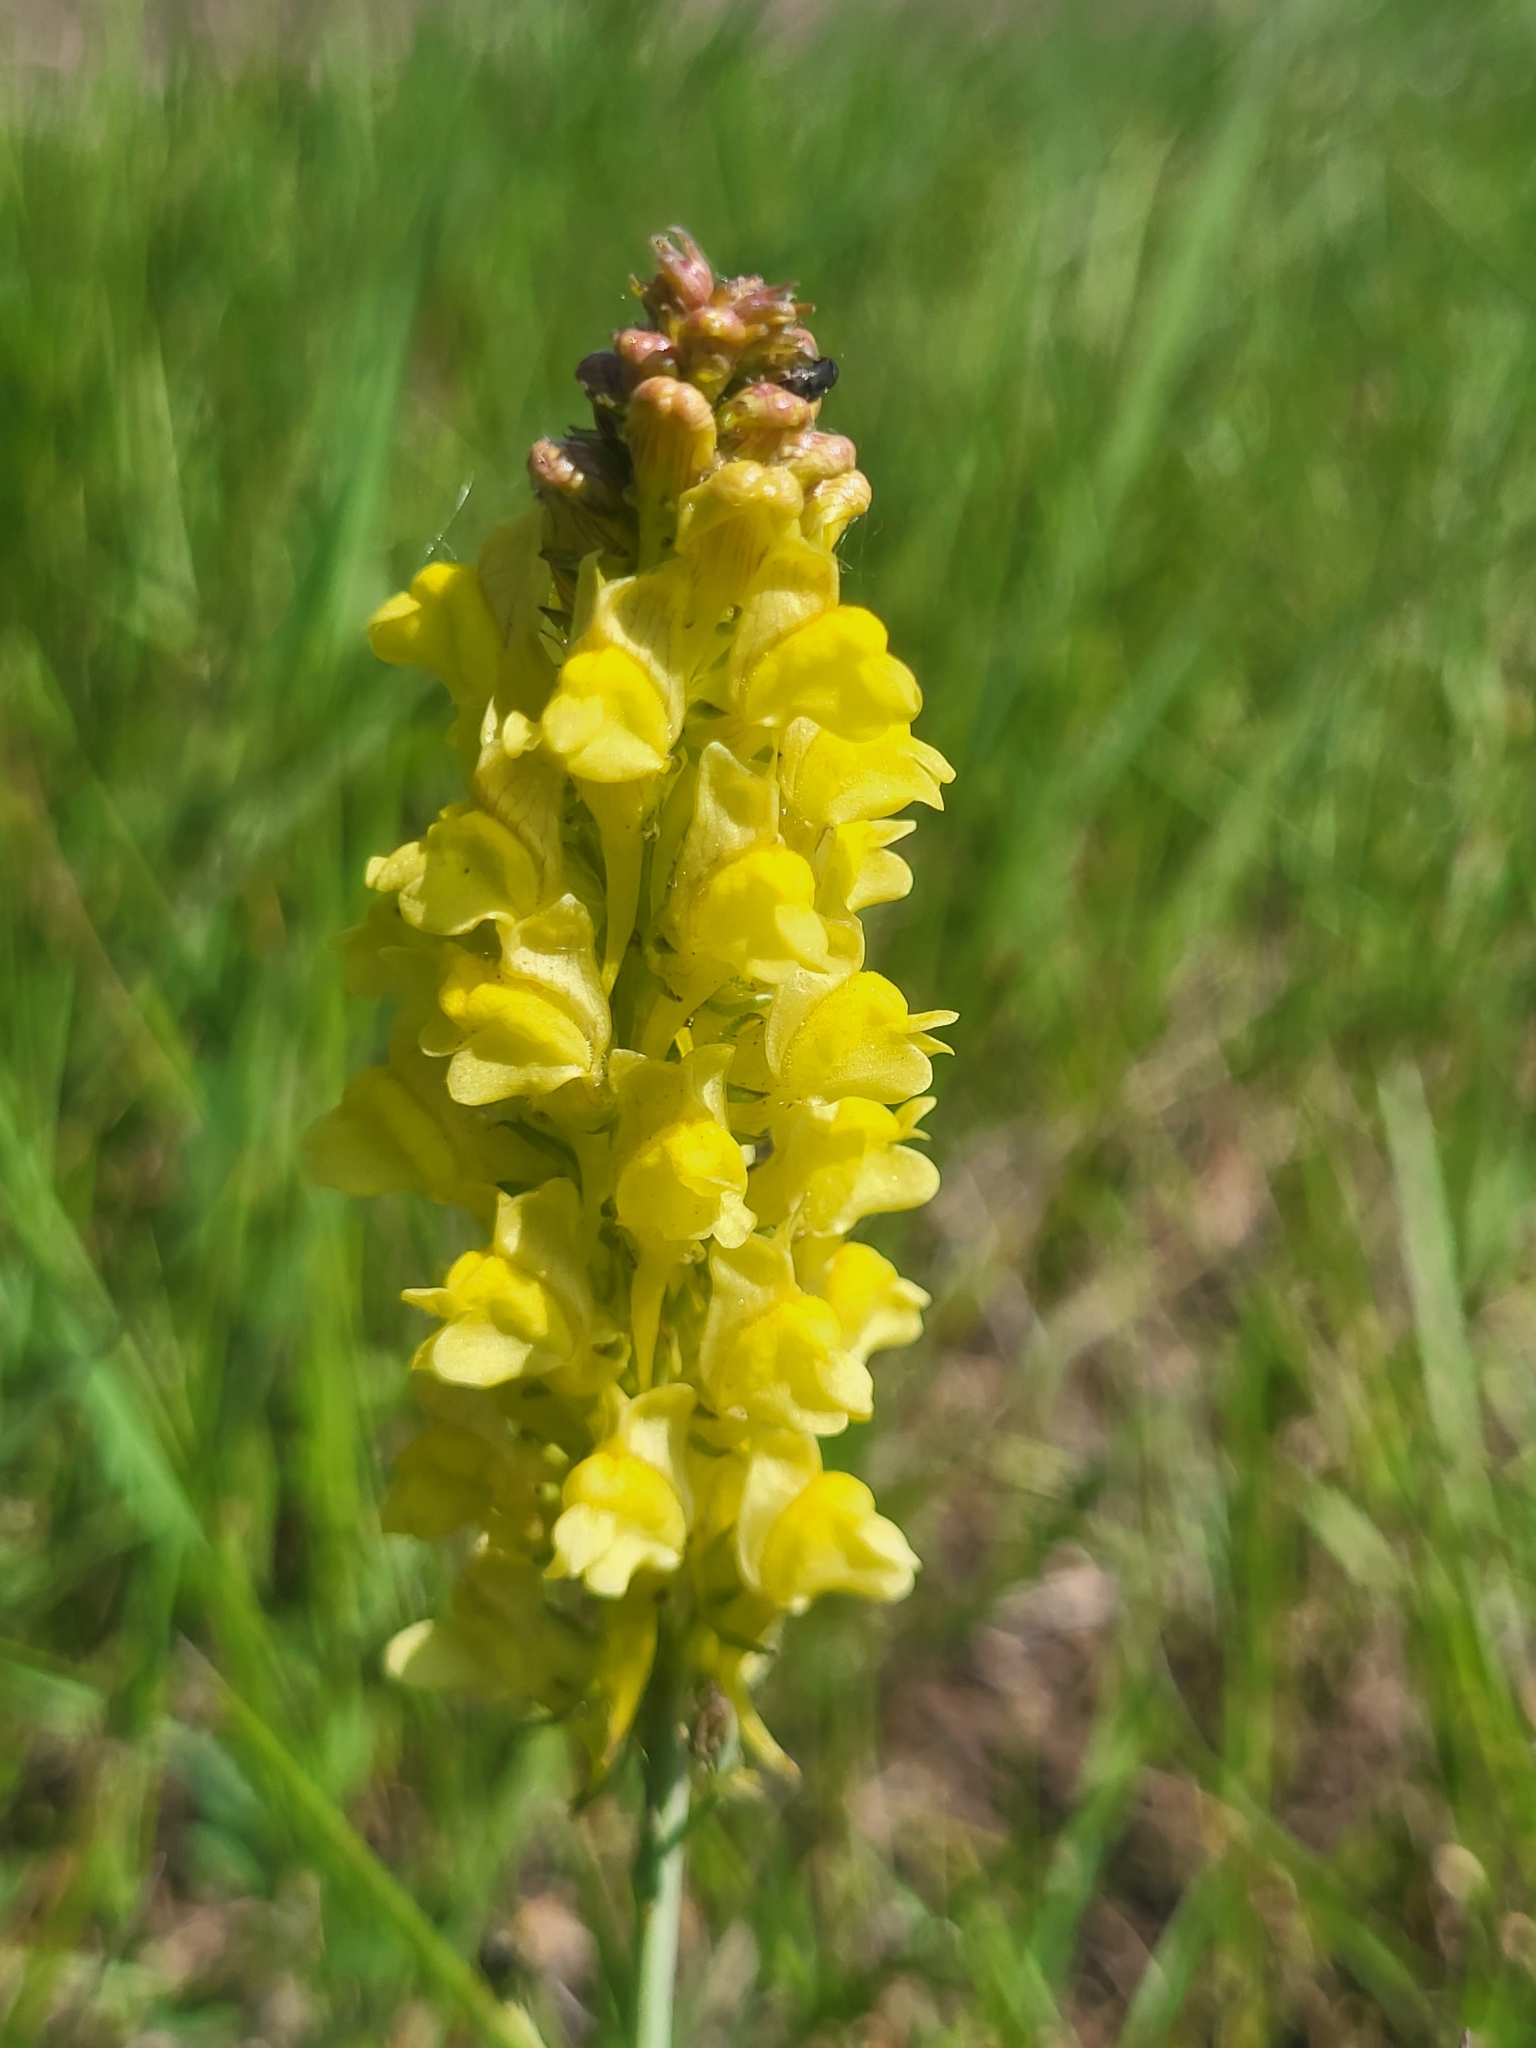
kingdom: Plantae
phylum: Tracheophyta
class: Magnoliopsida
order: Lamiales
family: Plantaginaceae
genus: Linaria
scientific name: Linaria kurdica
